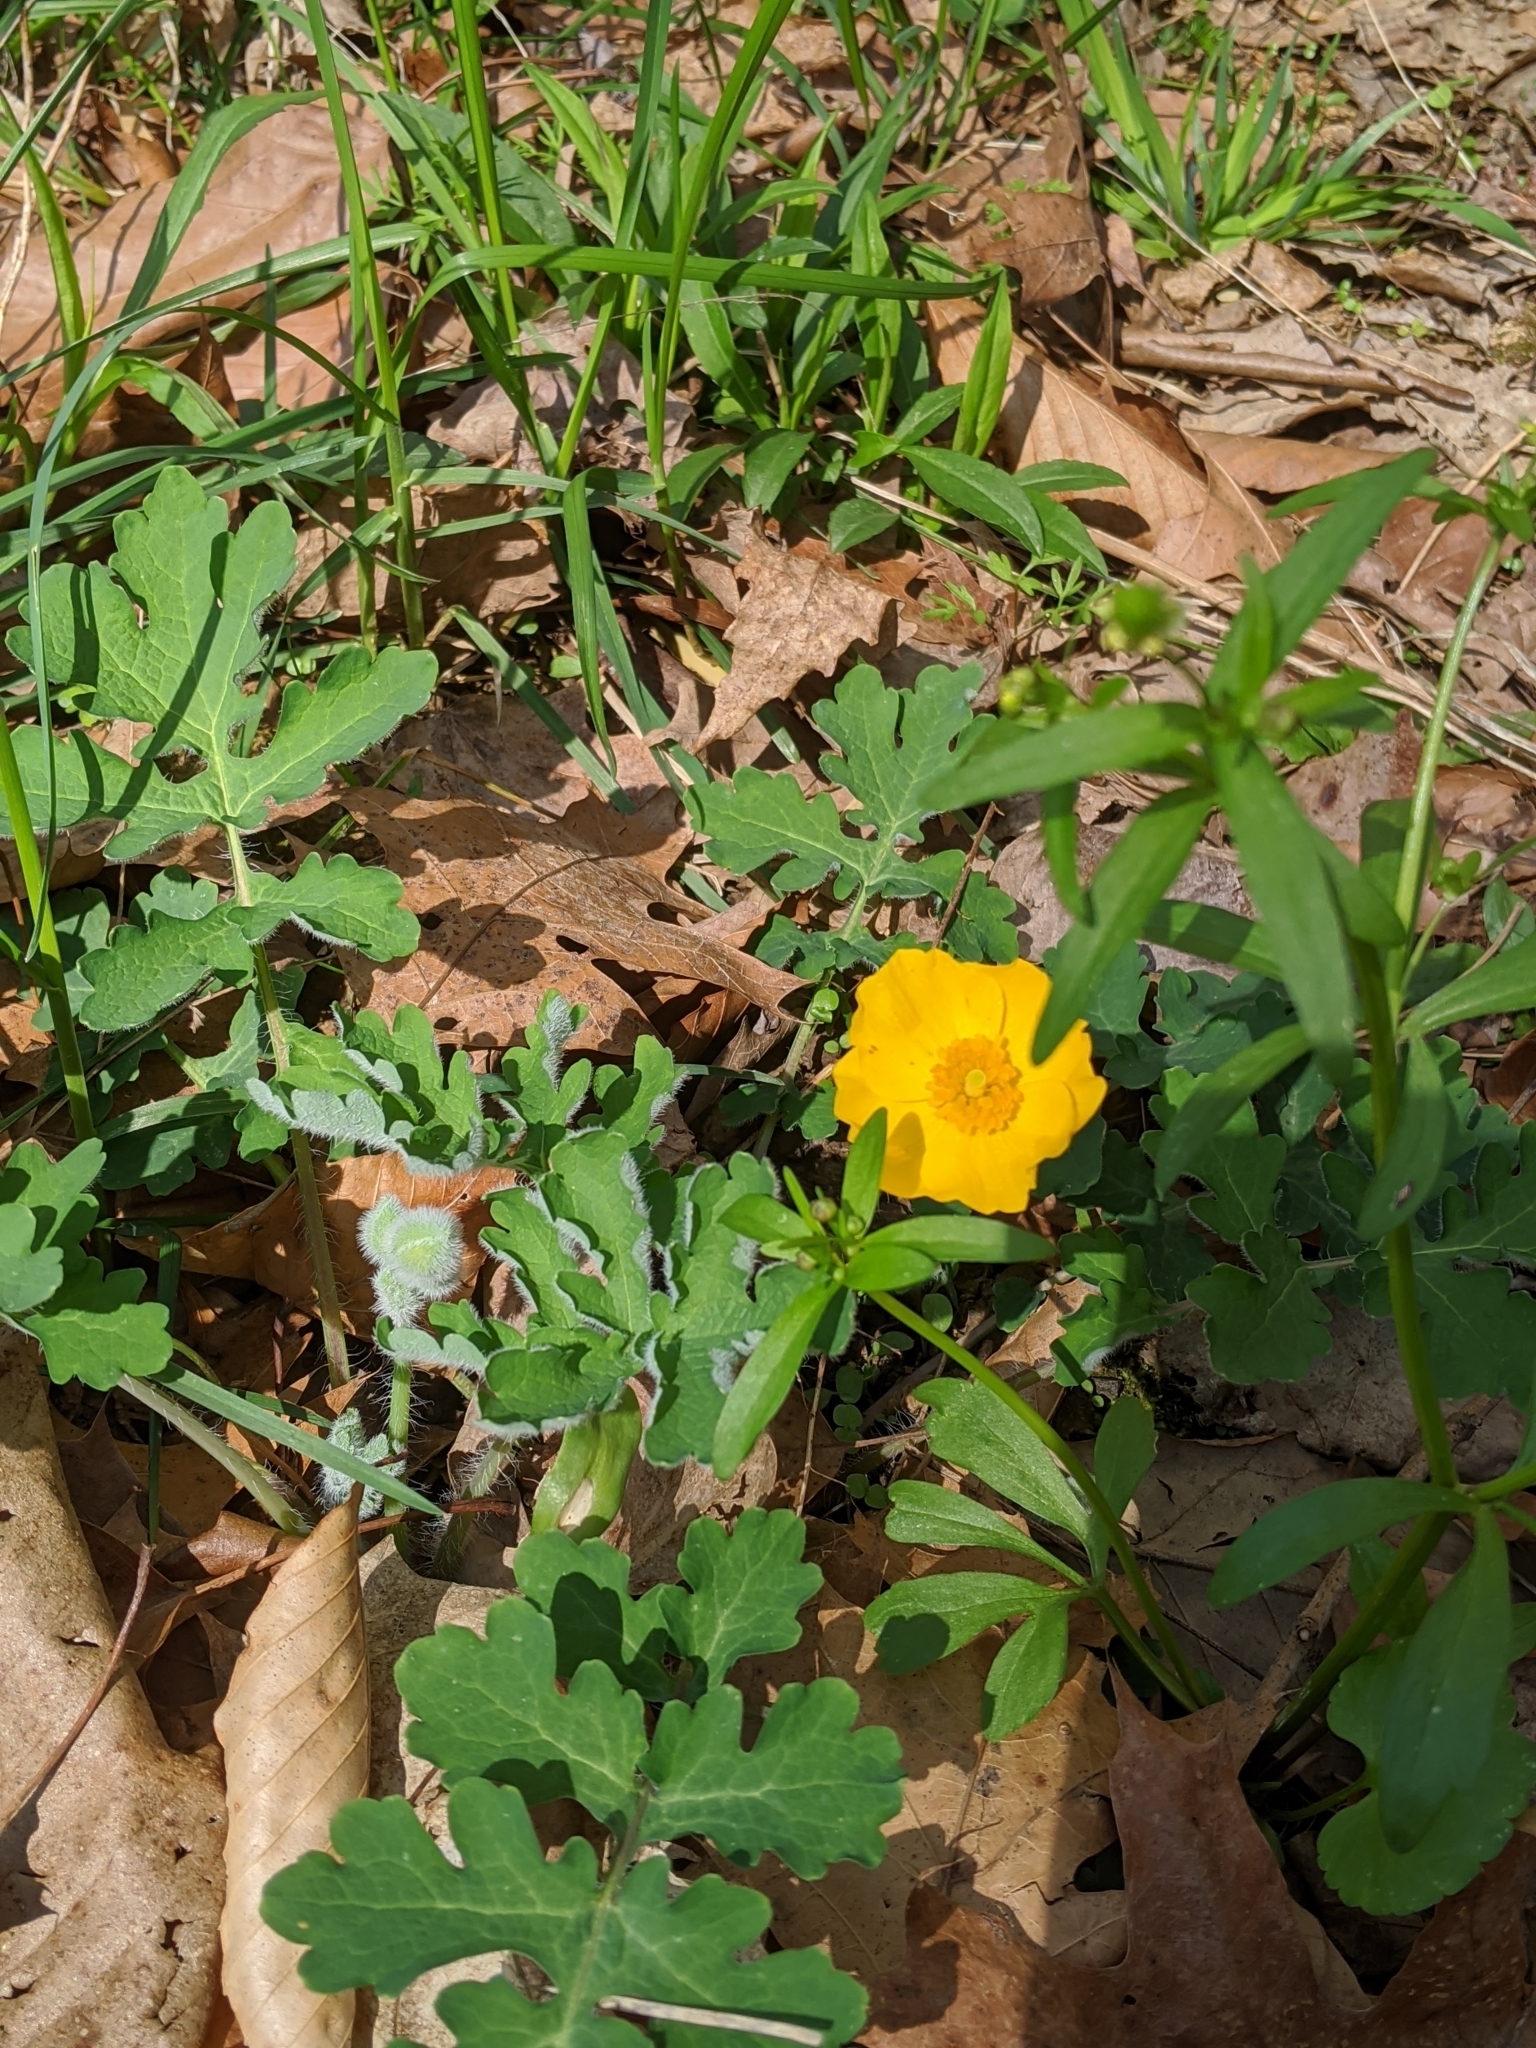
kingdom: Plantae
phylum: Tracheophyta
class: Magnoliopsida
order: Ranunculales
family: Papaveraceae
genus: Stylophorum
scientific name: Stylophorum diphyllum
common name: Celandine poppy
